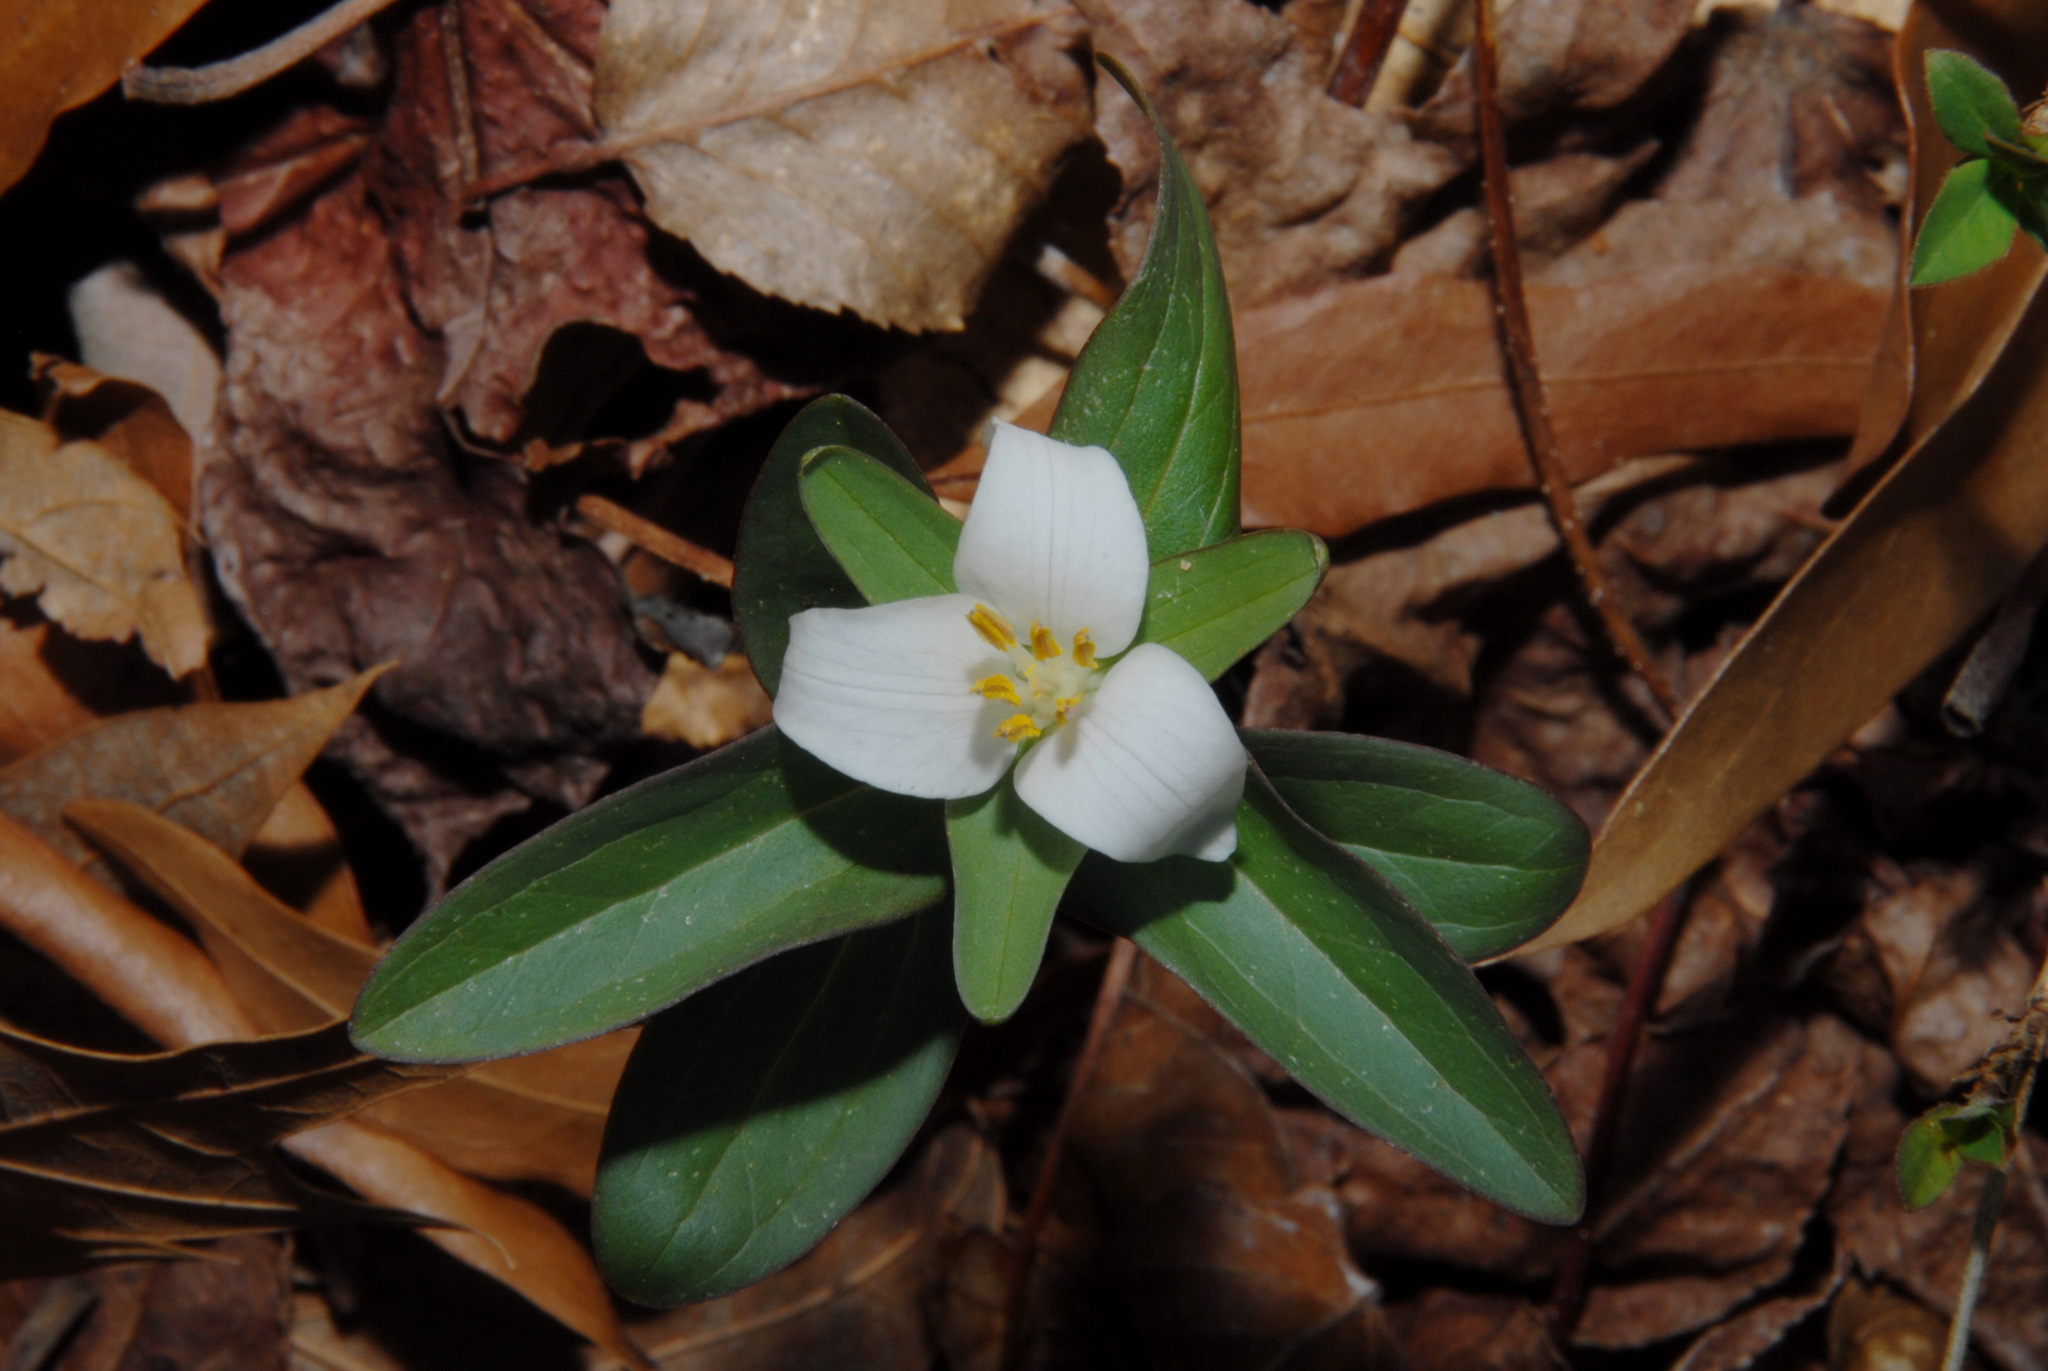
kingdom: Plantae
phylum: Tracheophyta
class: Liliopsida
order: Liliales
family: Melanthiaceae
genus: Trillium
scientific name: Trillium pusillum
